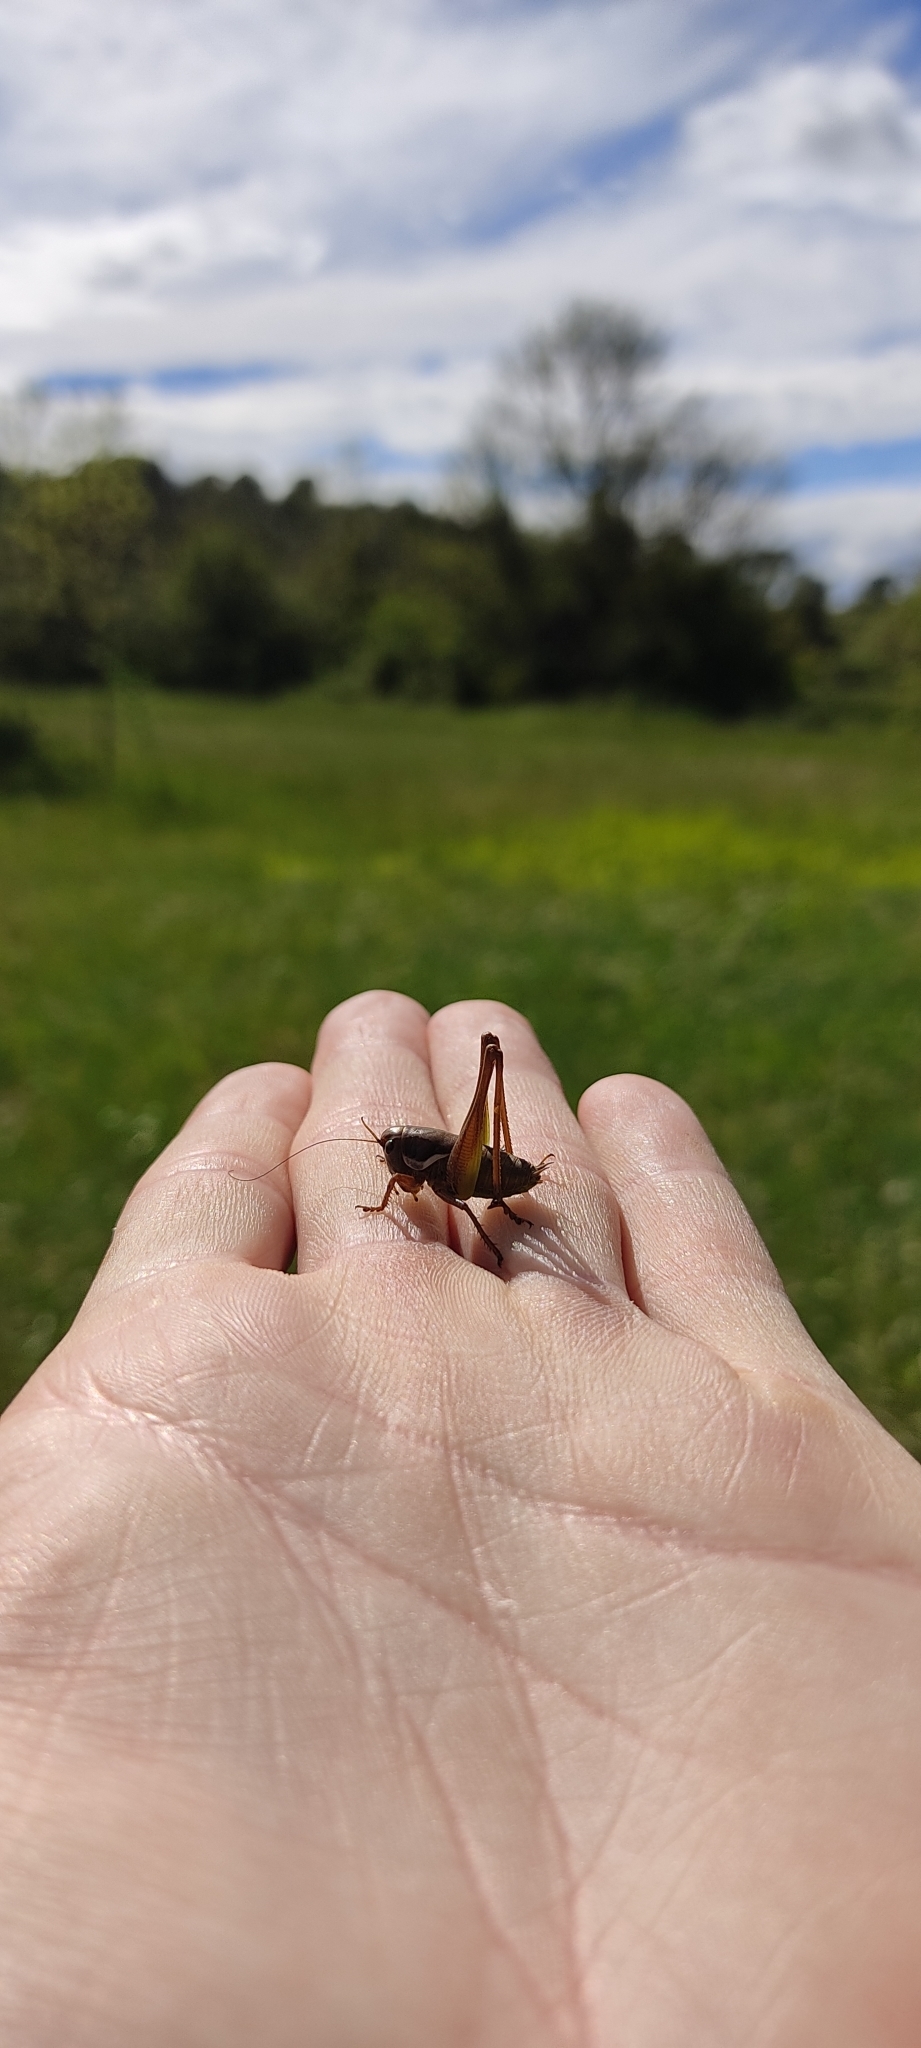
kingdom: Animalia
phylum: Arthropoda
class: Insecta
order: Orthoptera
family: Tettigoniidae
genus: Pholidoptera
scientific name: Pholidoptera femorata
